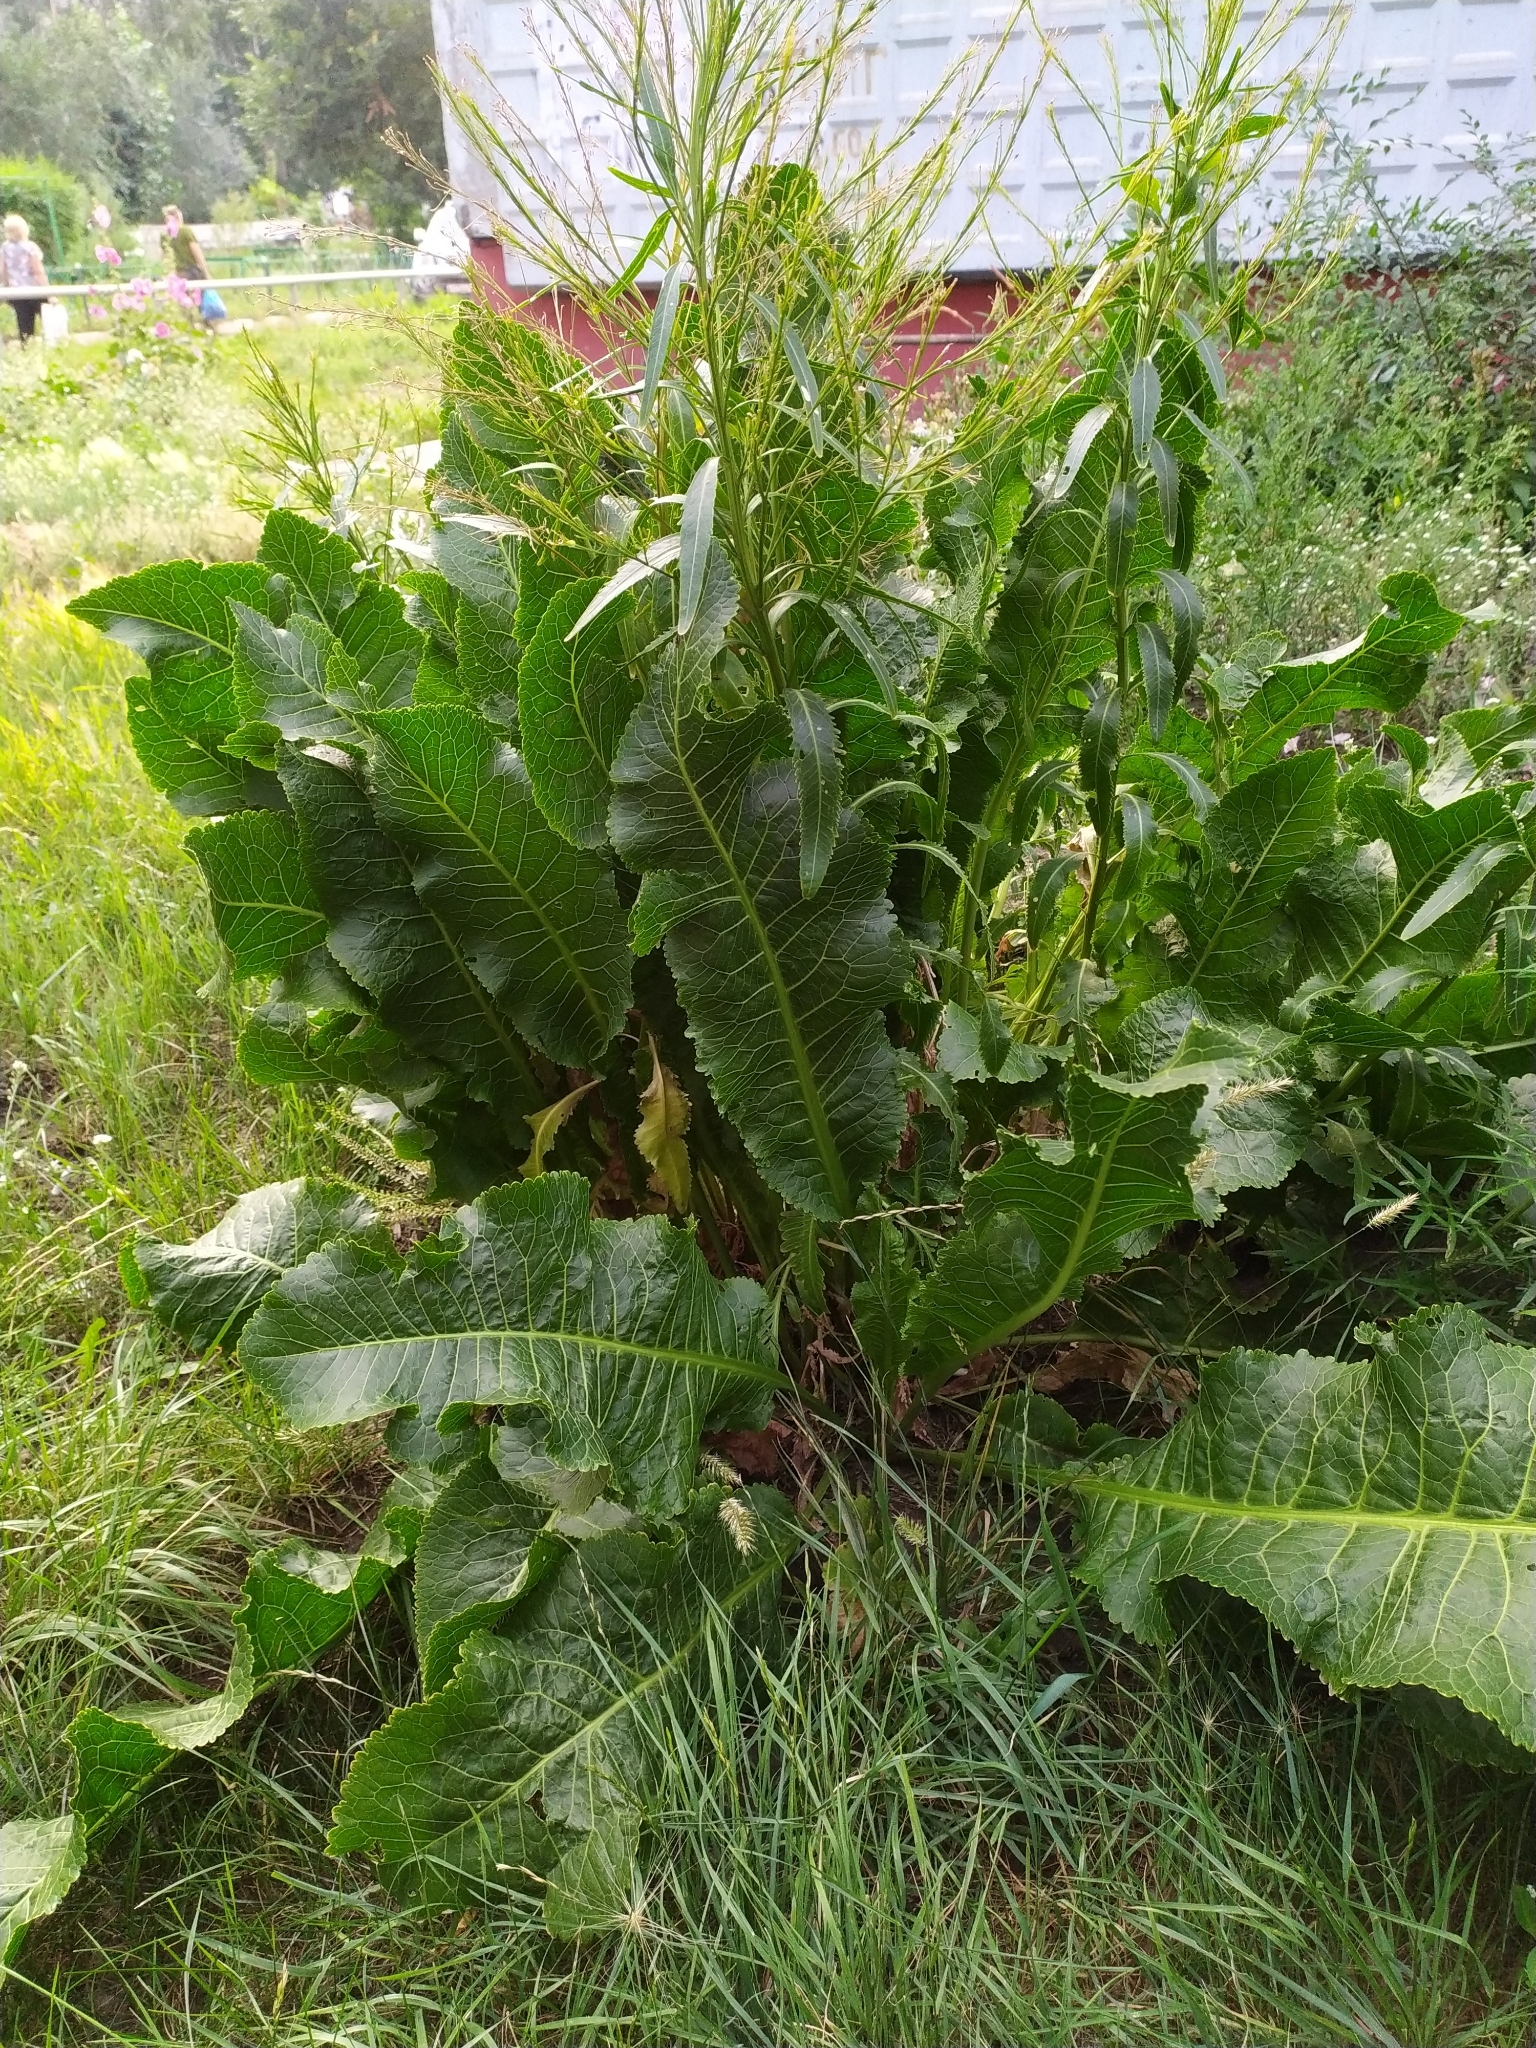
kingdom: Plantae
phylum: Tracheophyta
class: Magnoliopsida
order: Brassicales
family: Brassicaceae
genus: Armoracia
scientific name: Armoracia rusticana
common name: Horseradish
